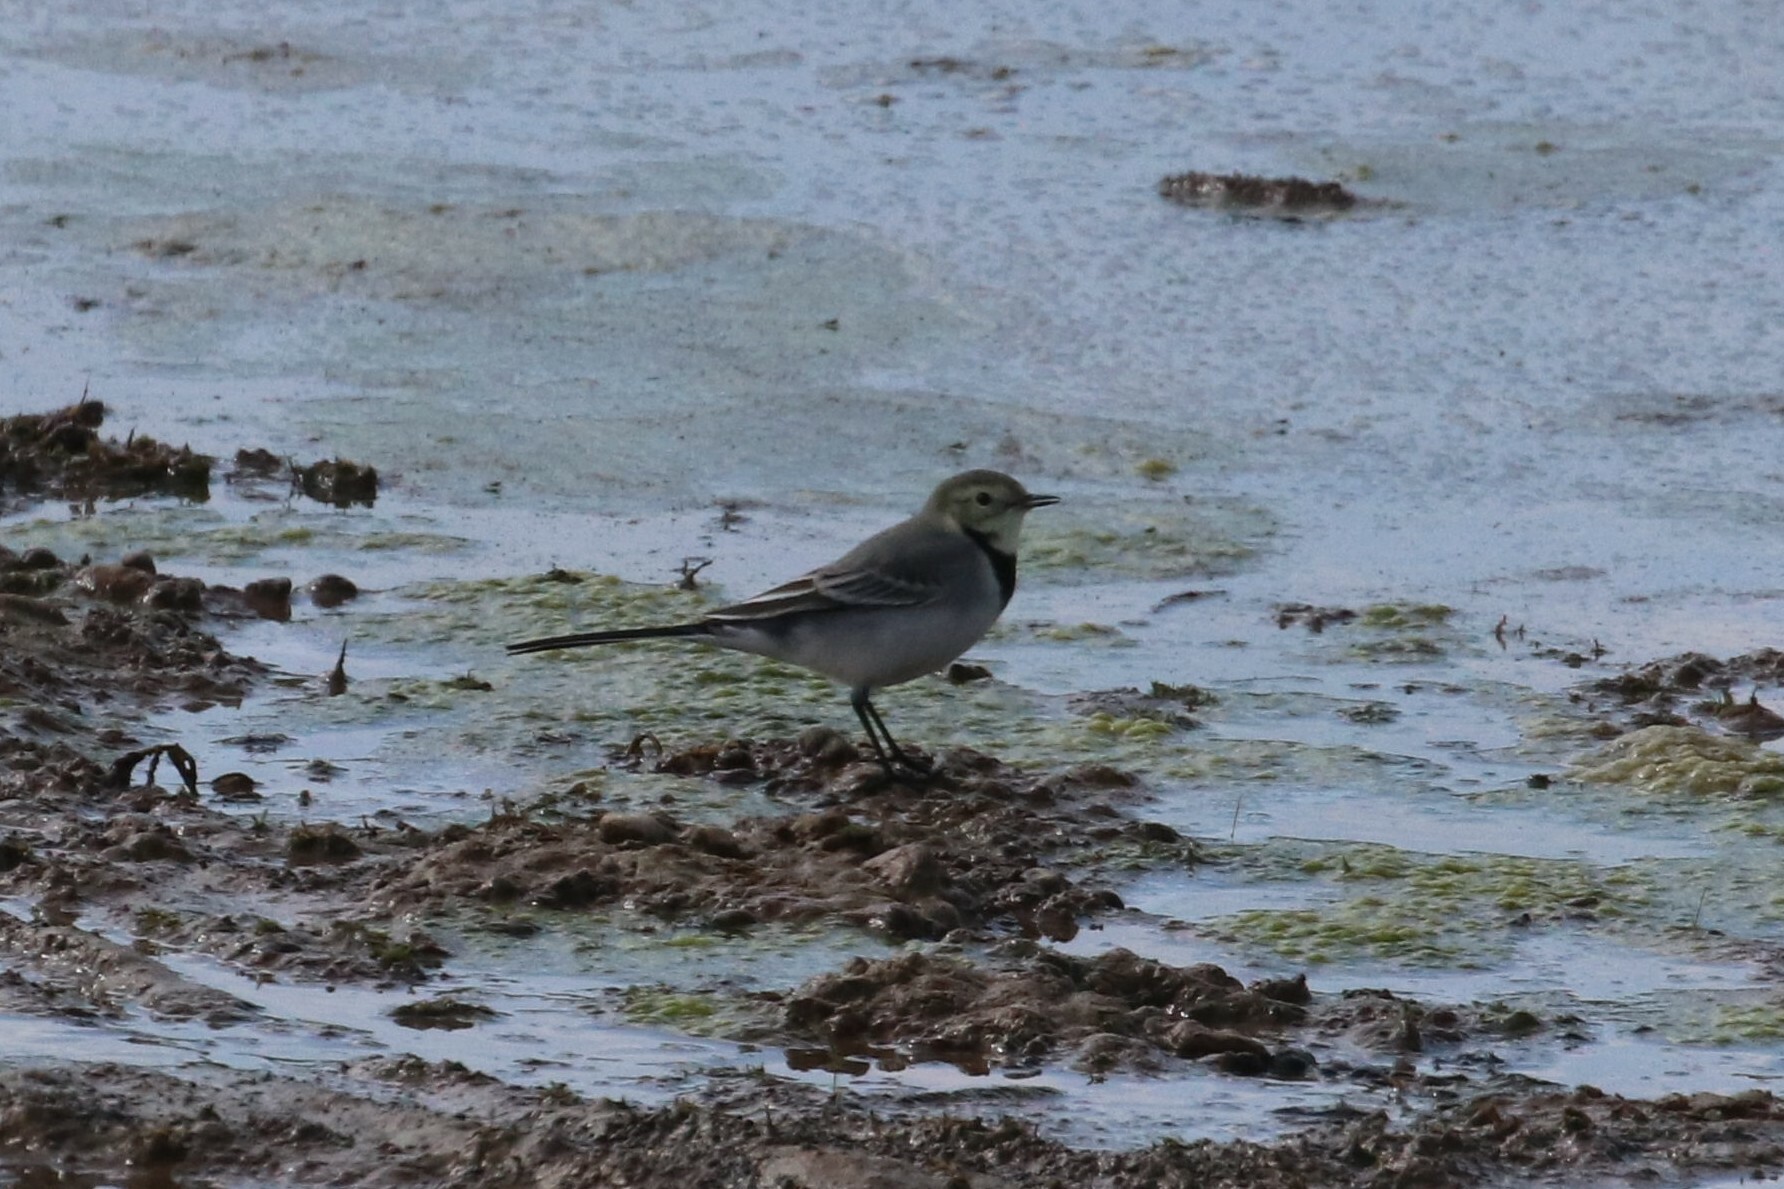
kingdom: Animalia
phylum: Chordata
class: Aves
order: Passeriformes
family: Motacillidae
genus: Motacilla
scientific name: Motacilla alba
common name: White wagtail
